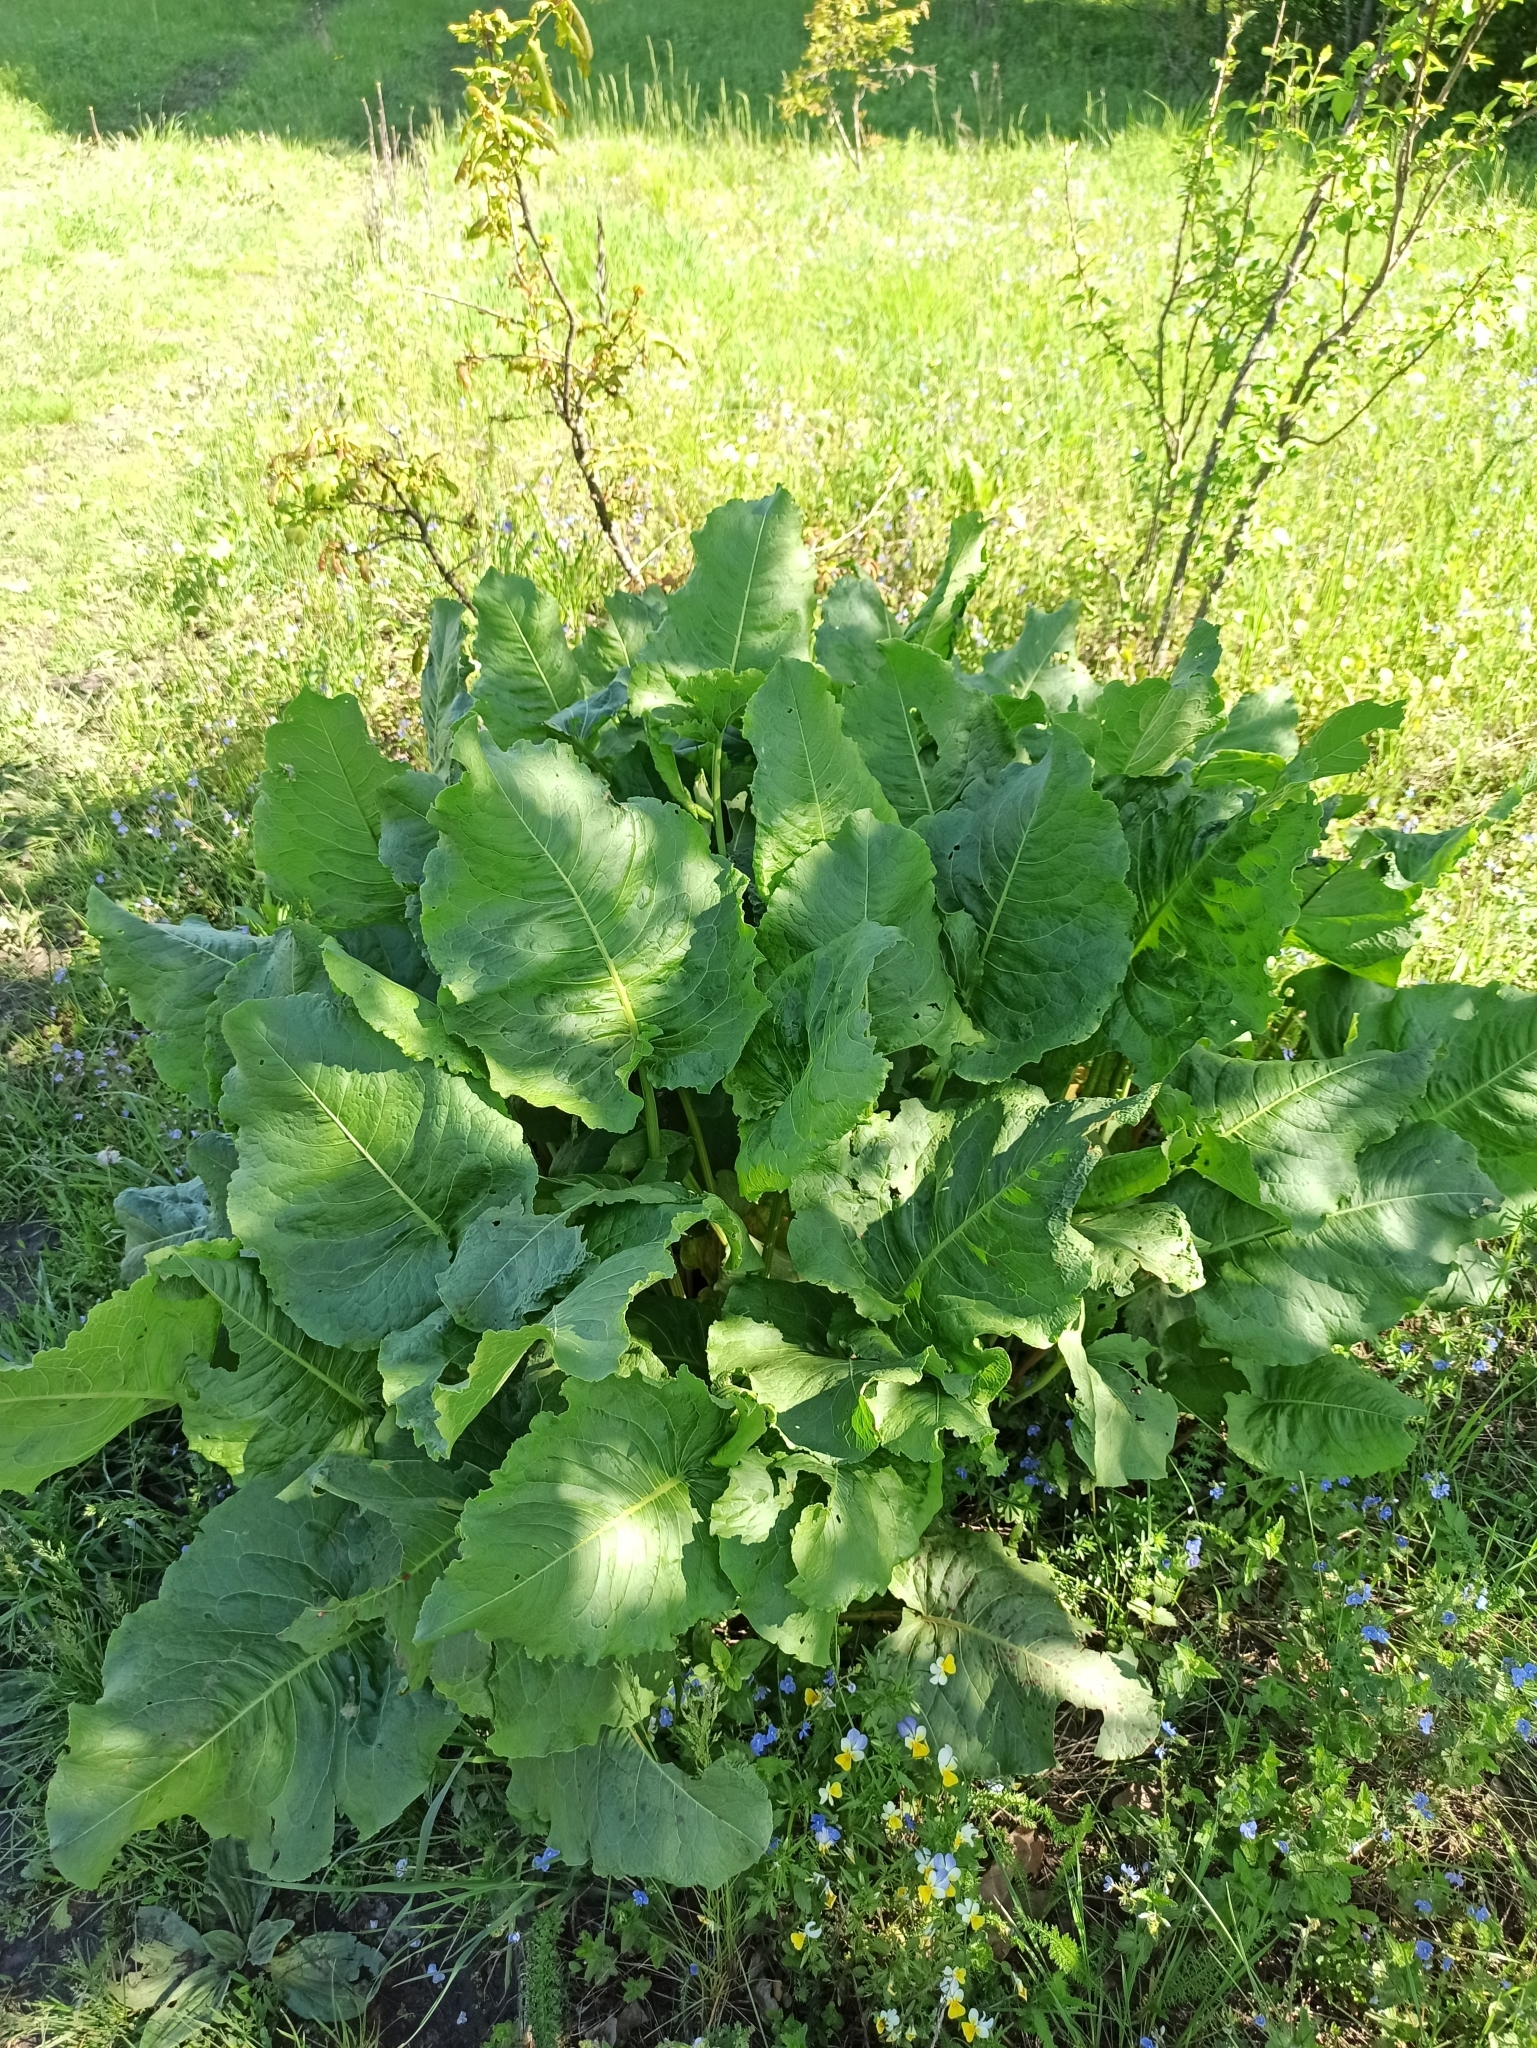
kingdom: Plantae
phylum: Tracheophyta
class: Magnoliopsida
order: Caryophyllales
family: Polygonaceae
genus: Rumex
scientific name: Rumex confertus
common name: Russian dock
